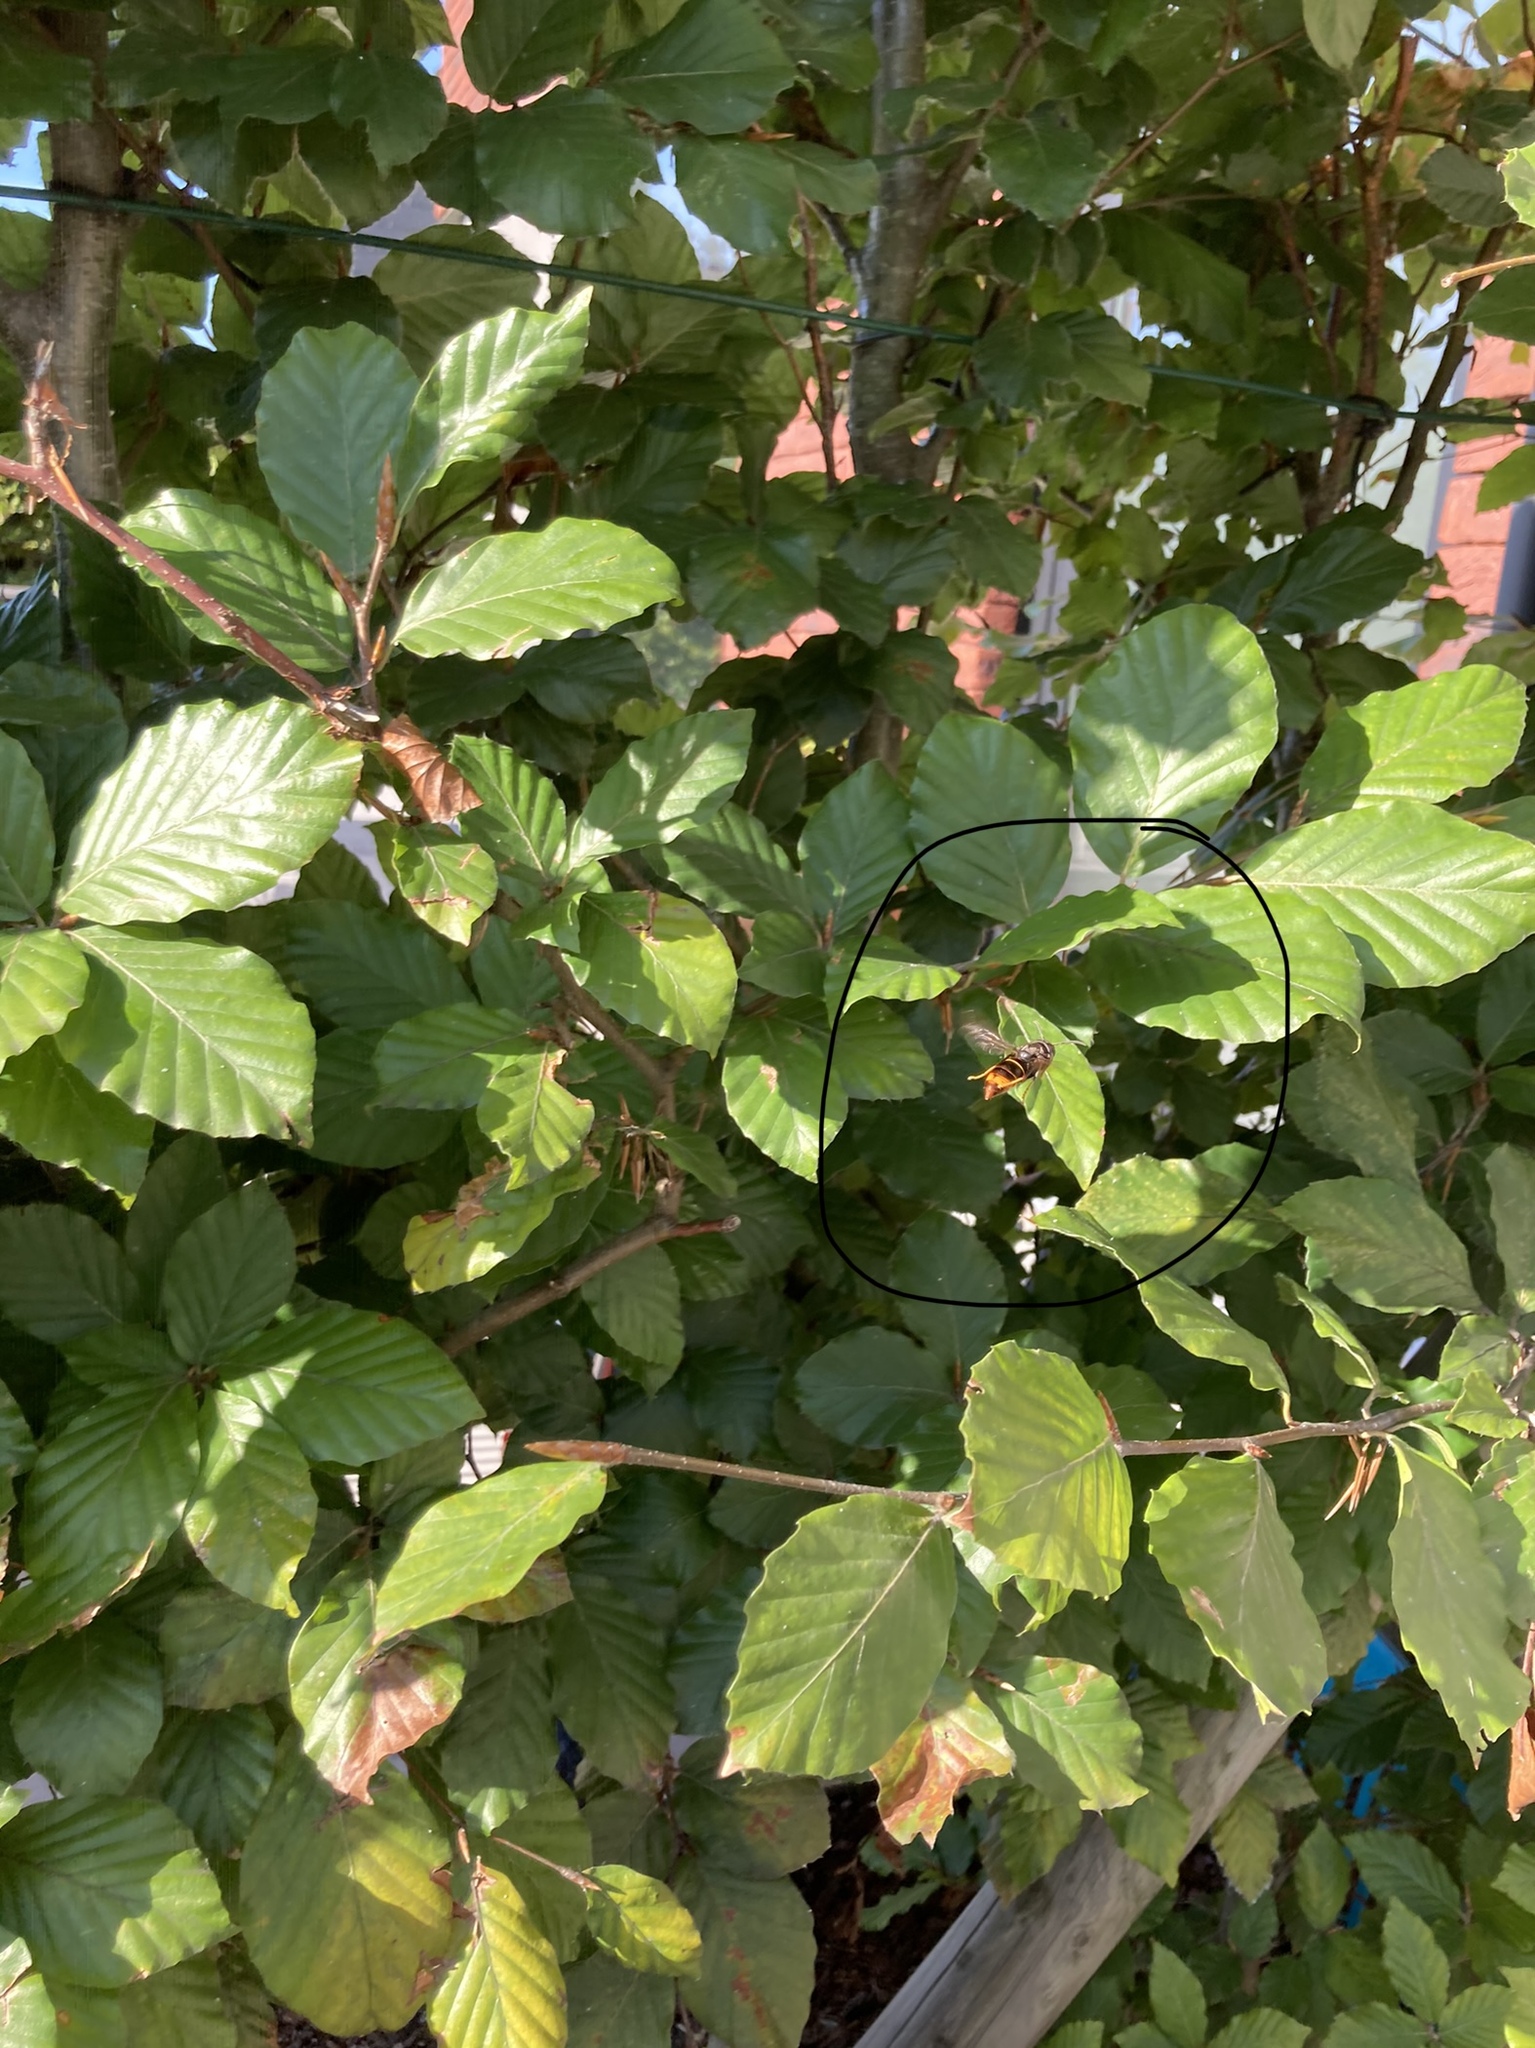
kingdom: Animalia
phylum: Arthropoda
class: Insecta
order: Hymenoptera
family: Vespidae
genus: Vespa
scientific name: Vespa velutina
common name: Asian hornet
